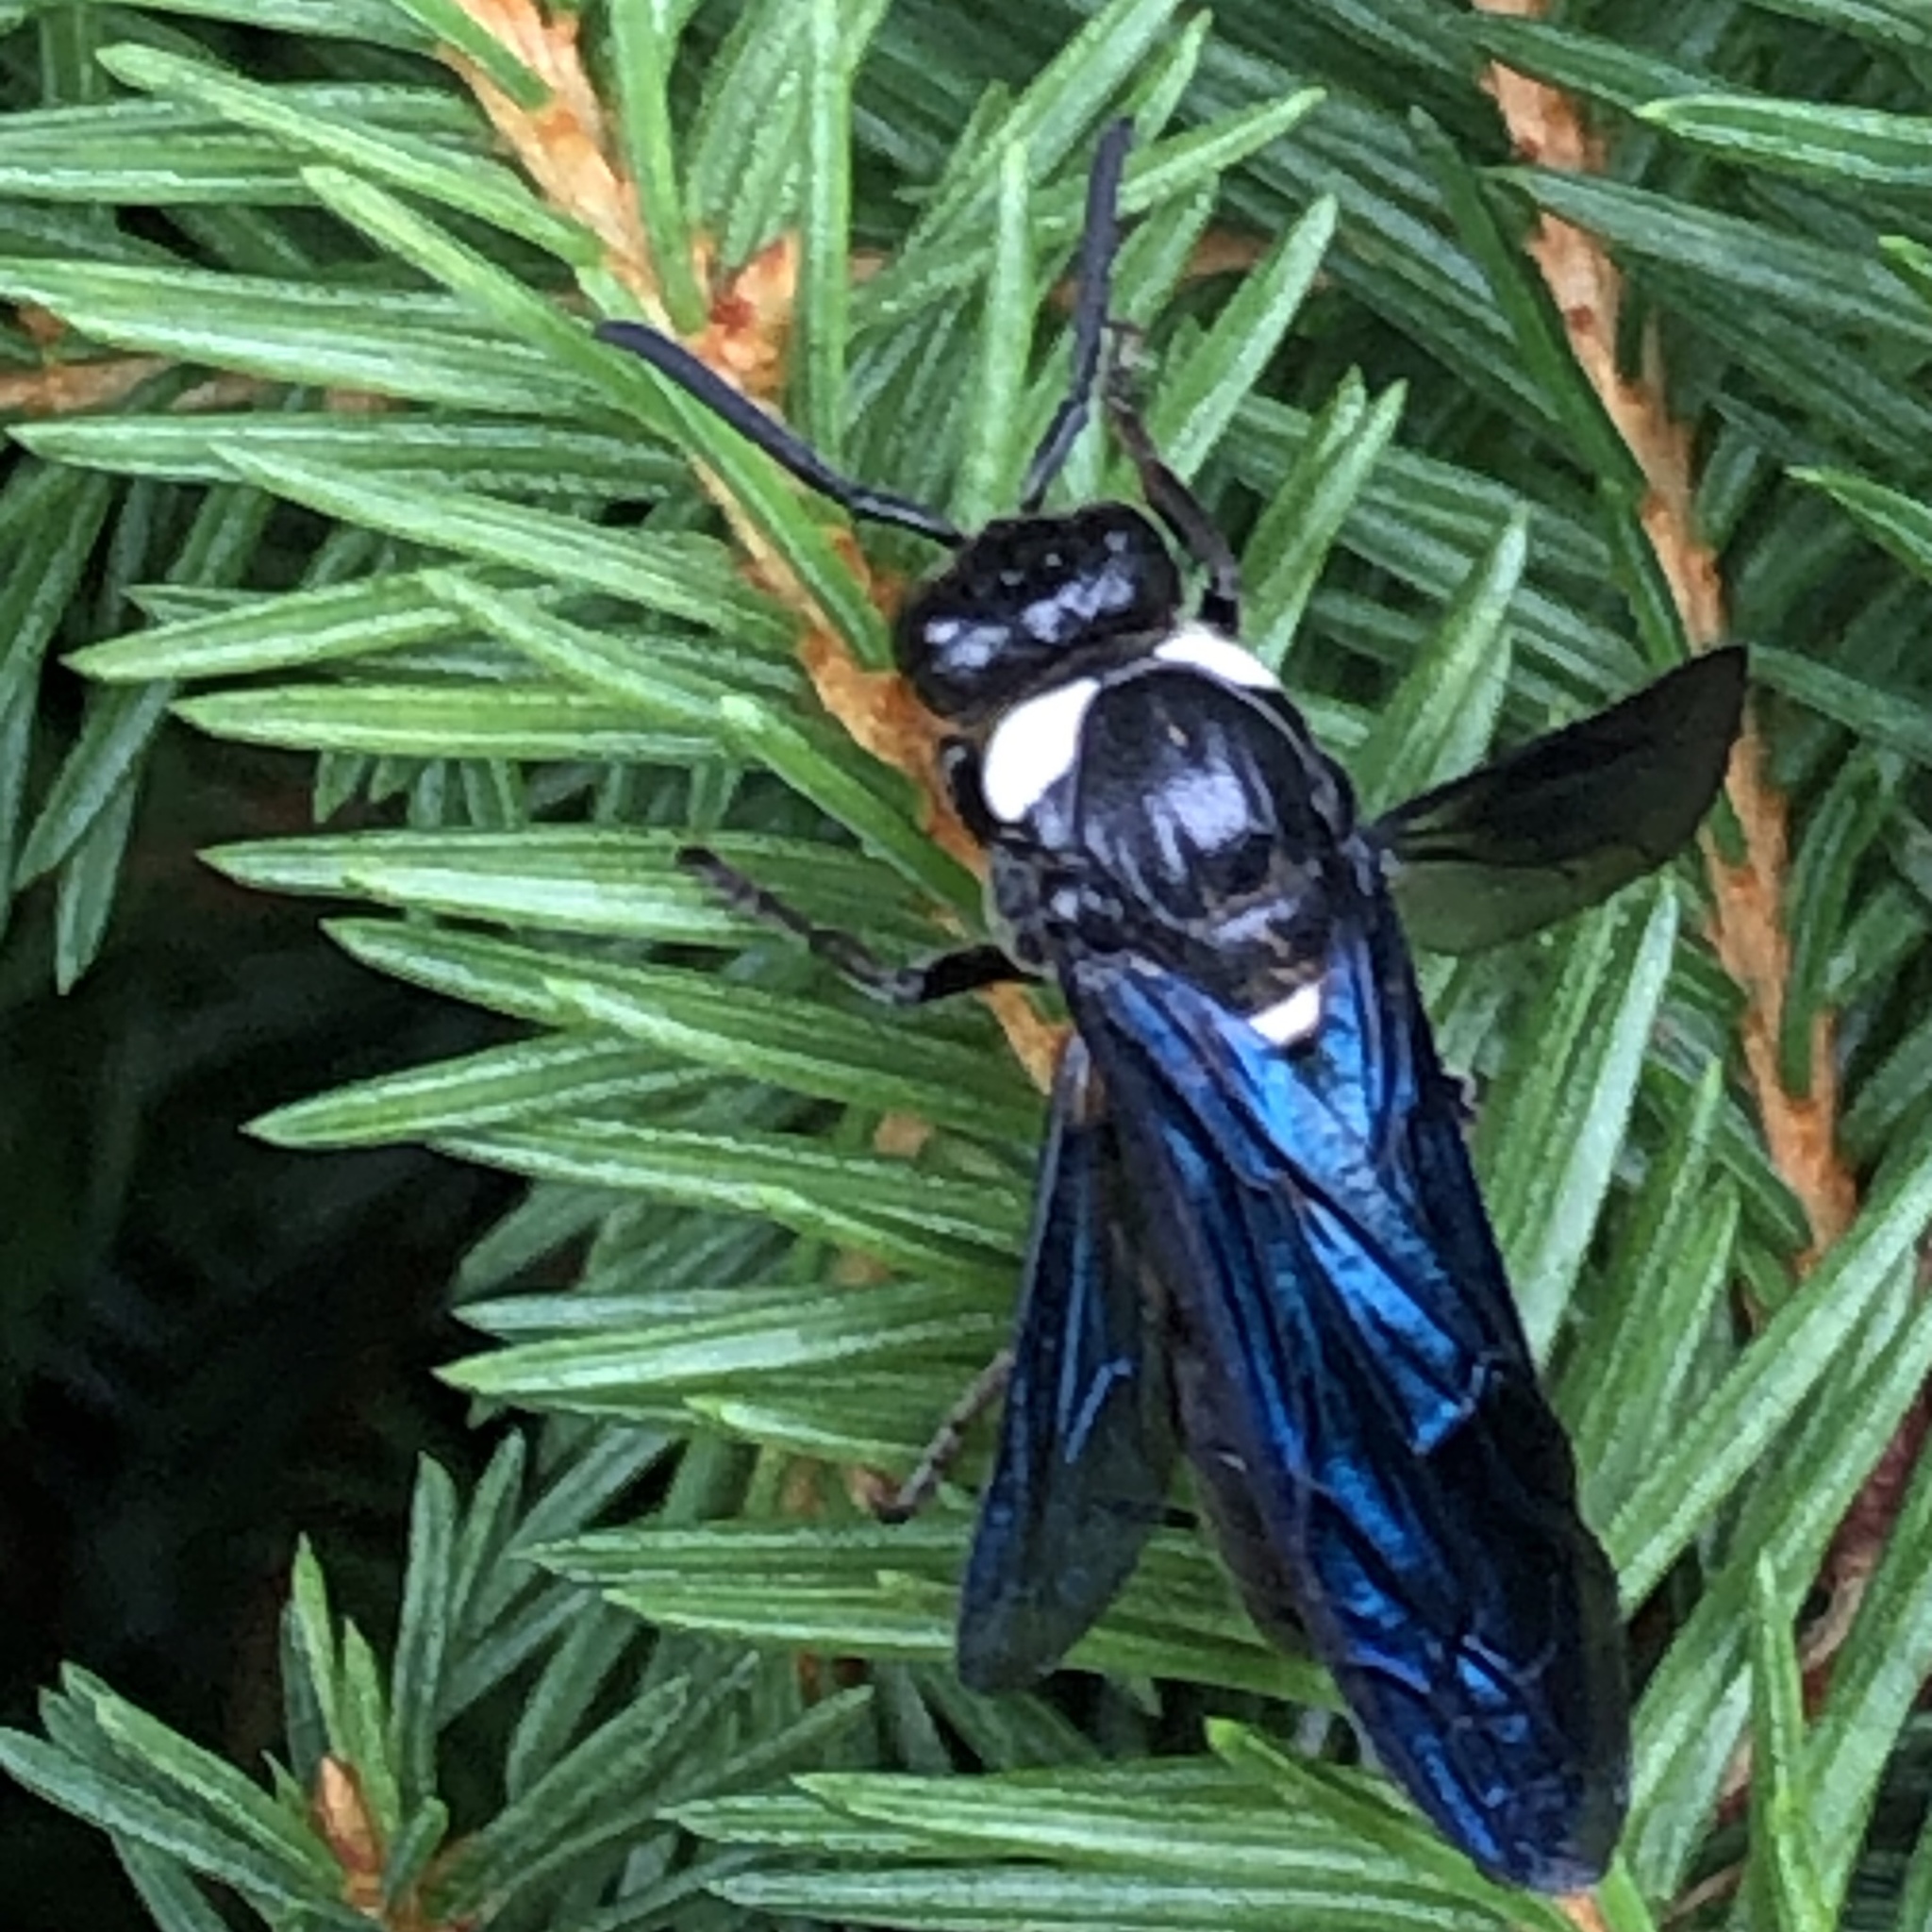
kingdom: Animalia
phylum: Arthropoda
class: Insecta
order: Hymenoptera
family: Eumenidae
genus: Monobia
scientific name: Monobia quadridens
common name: Four-toothed mason wasp
